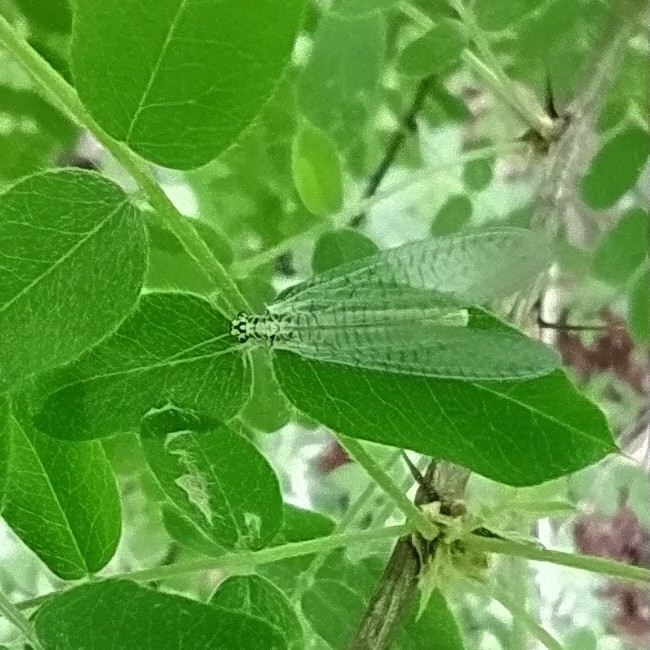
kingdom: Animalia
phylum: Arthropoda
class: Insecta
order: Neuroptera
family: Chrysopidae
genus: Chrysopa
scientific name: Chrysopa perla
